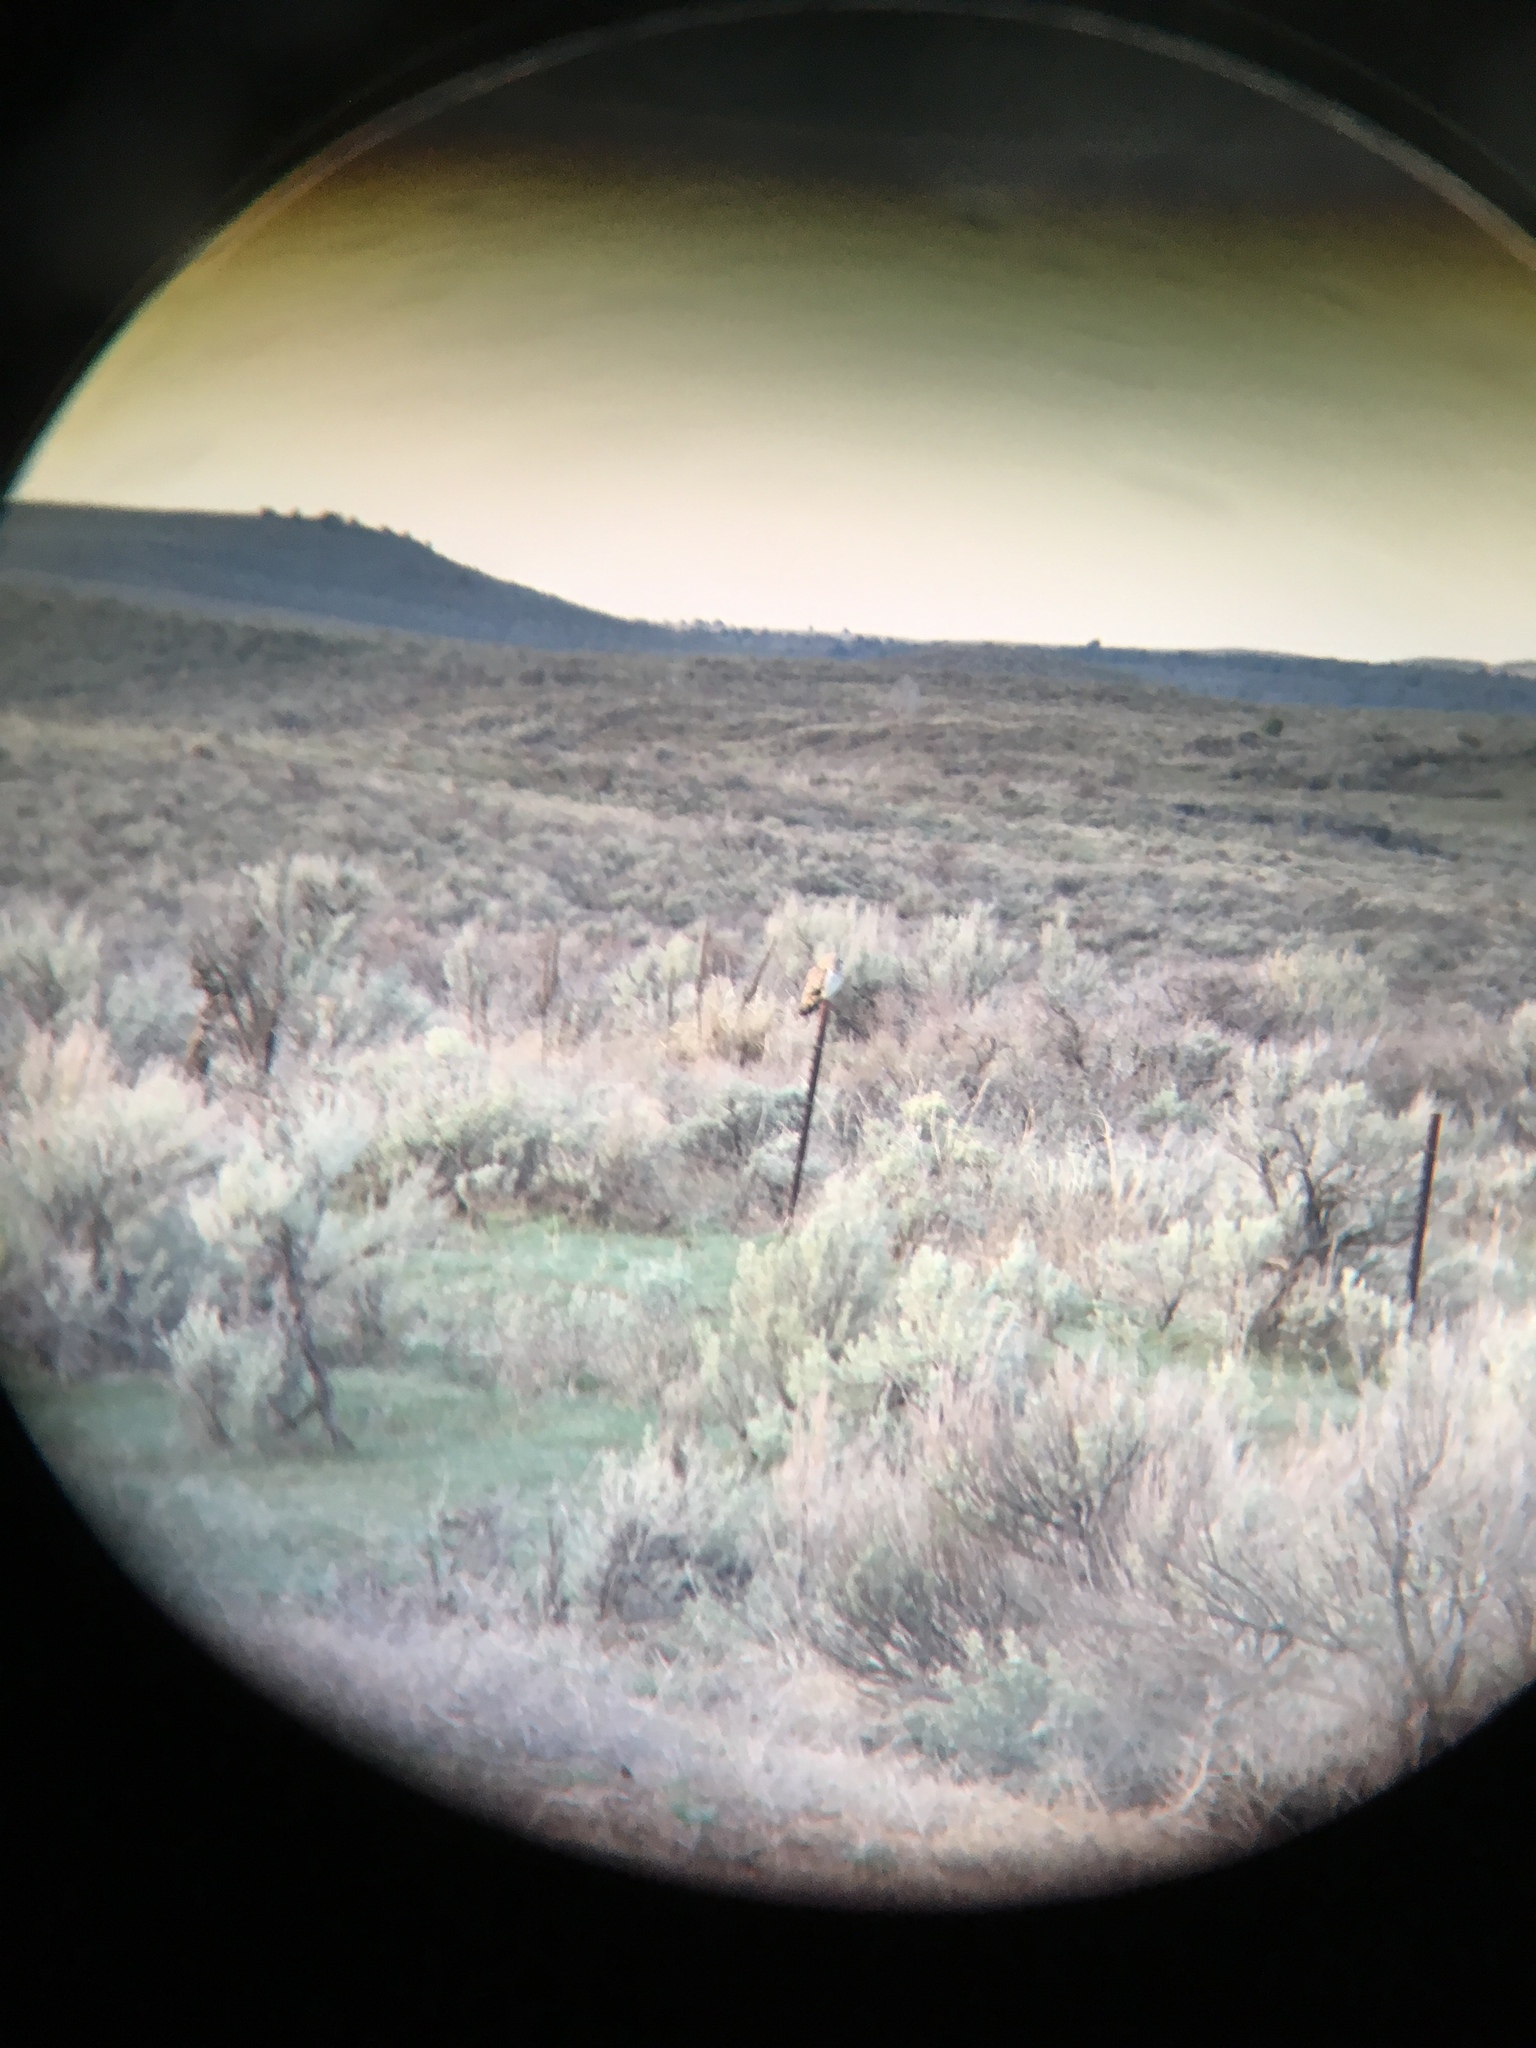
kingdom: Animalia
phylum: Chordata
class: Aves
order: Strigiformes
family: Strigidae
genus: Asio
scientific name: Asio flammeus
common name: Short-eared owl
